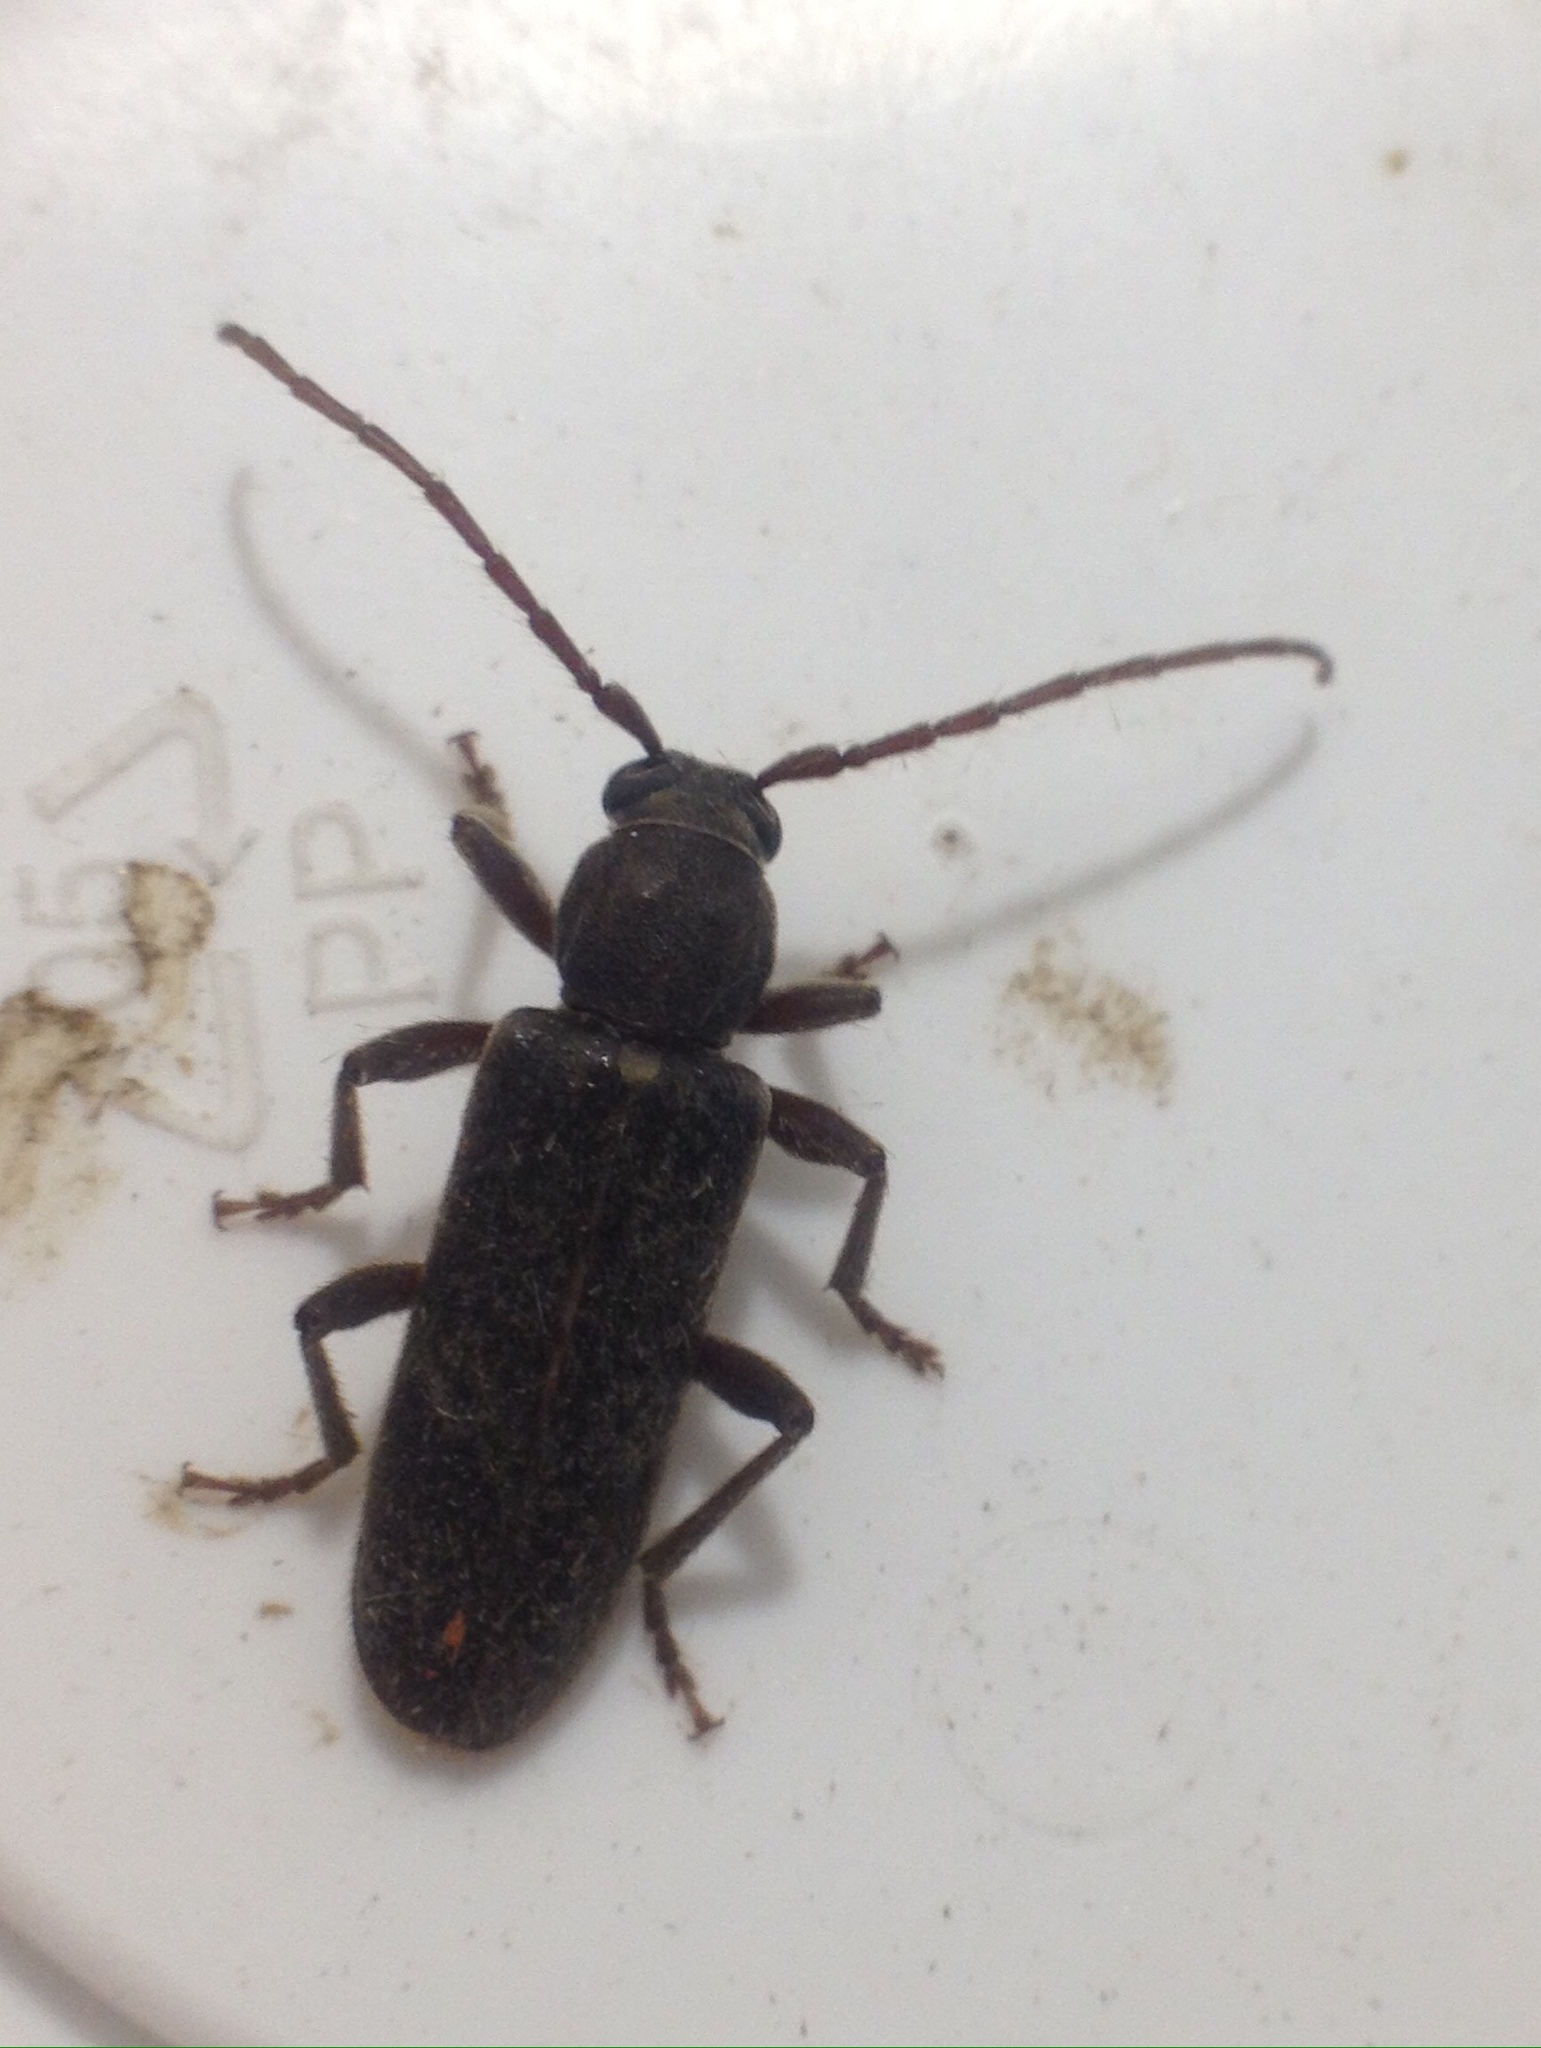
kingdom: Animalia
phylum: Arthropoda
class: Insecta
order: Coleoptera
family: Cerambycidae
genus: Trichoferus
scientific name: Trichoferus campestris
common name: Velvet long horned beetle
